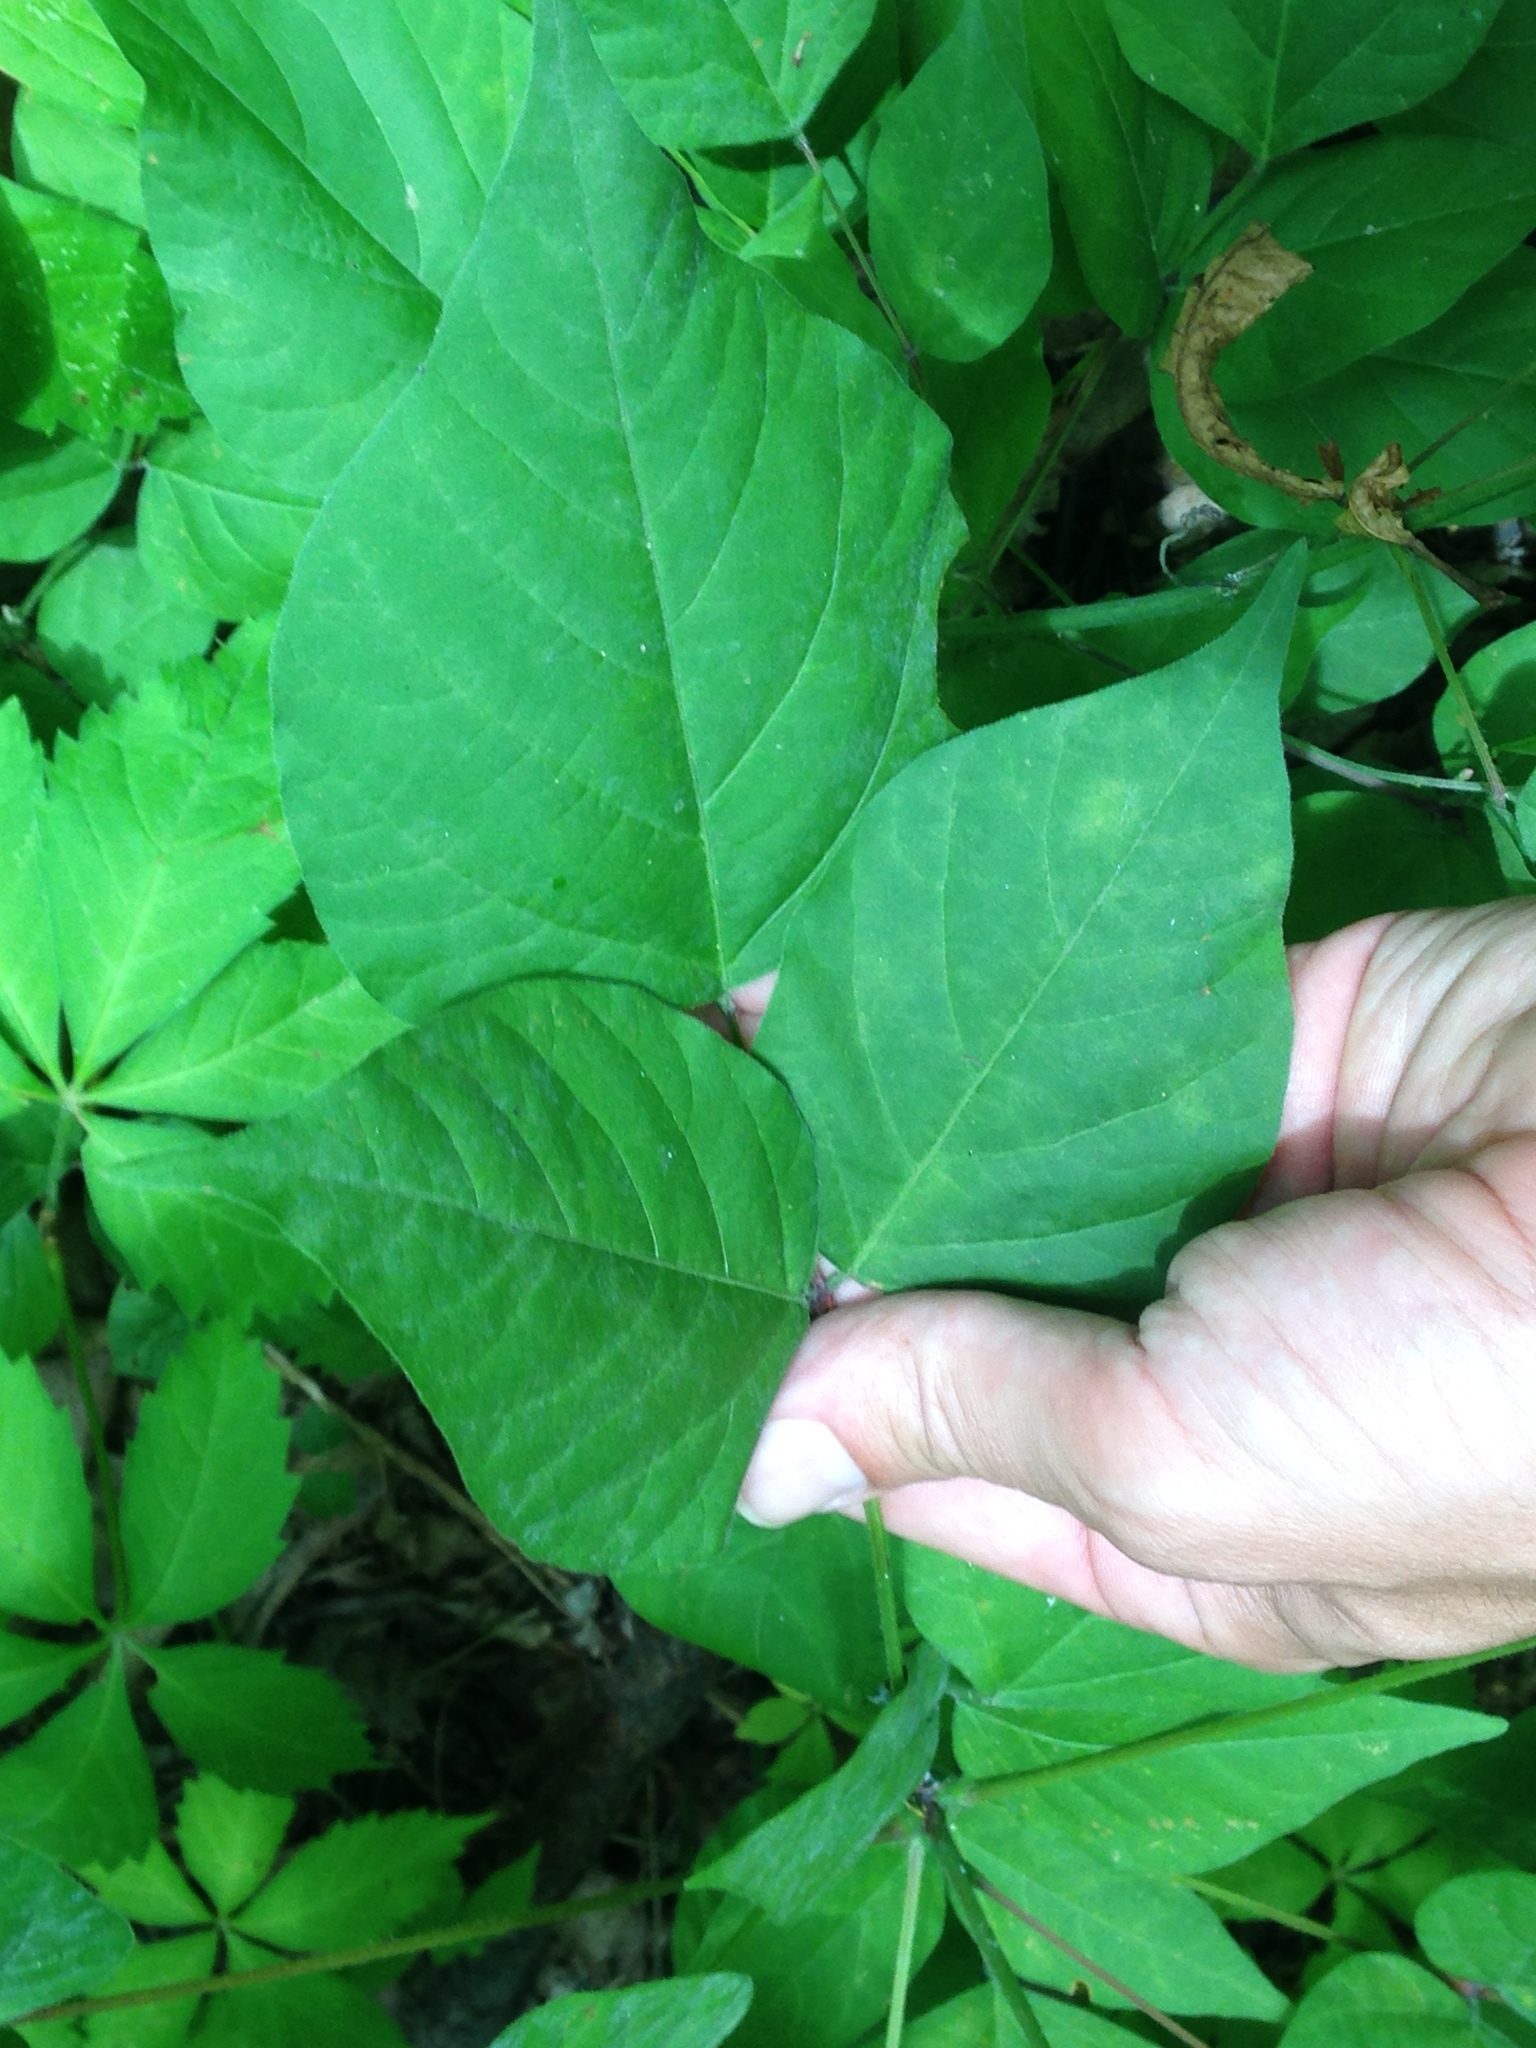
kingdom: Plantae
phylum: Tracheophyta
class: Magnoliopsida
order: Fabales
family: Fabaceae
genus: Hylodesmum
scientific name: Hylodesmum glutinosum
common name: Clustered-leaved tick-trefoil
